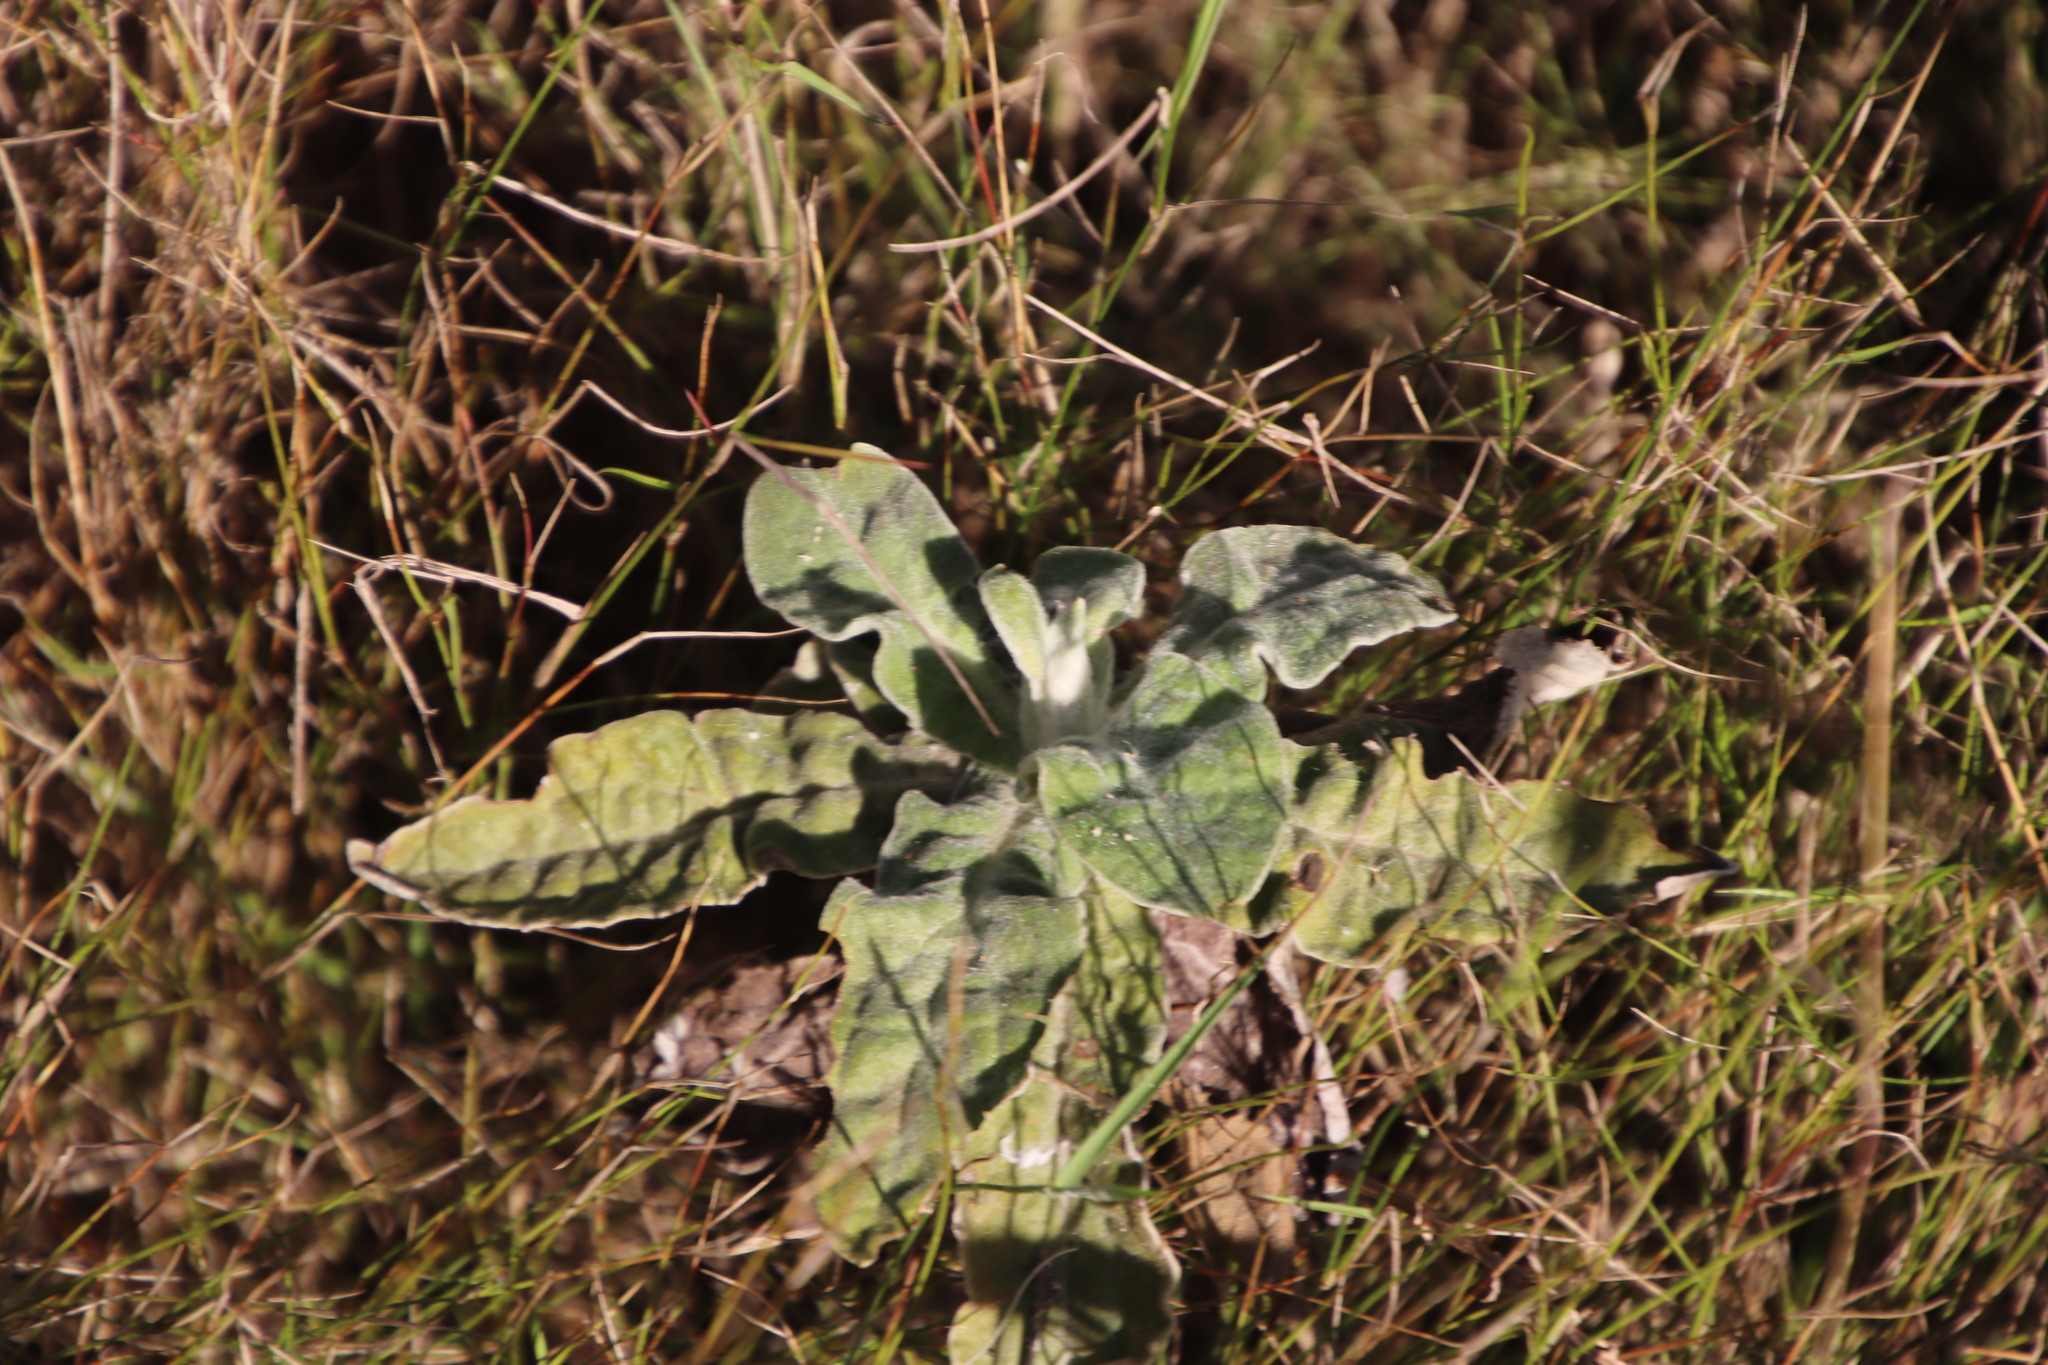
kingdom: Plantae
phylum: Tracheophyta
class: Magnoliopsida
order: Asterales
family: Asteraceae
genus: Helichrysum
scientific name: Helichrysum foetidum
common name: Stinking everlasting
